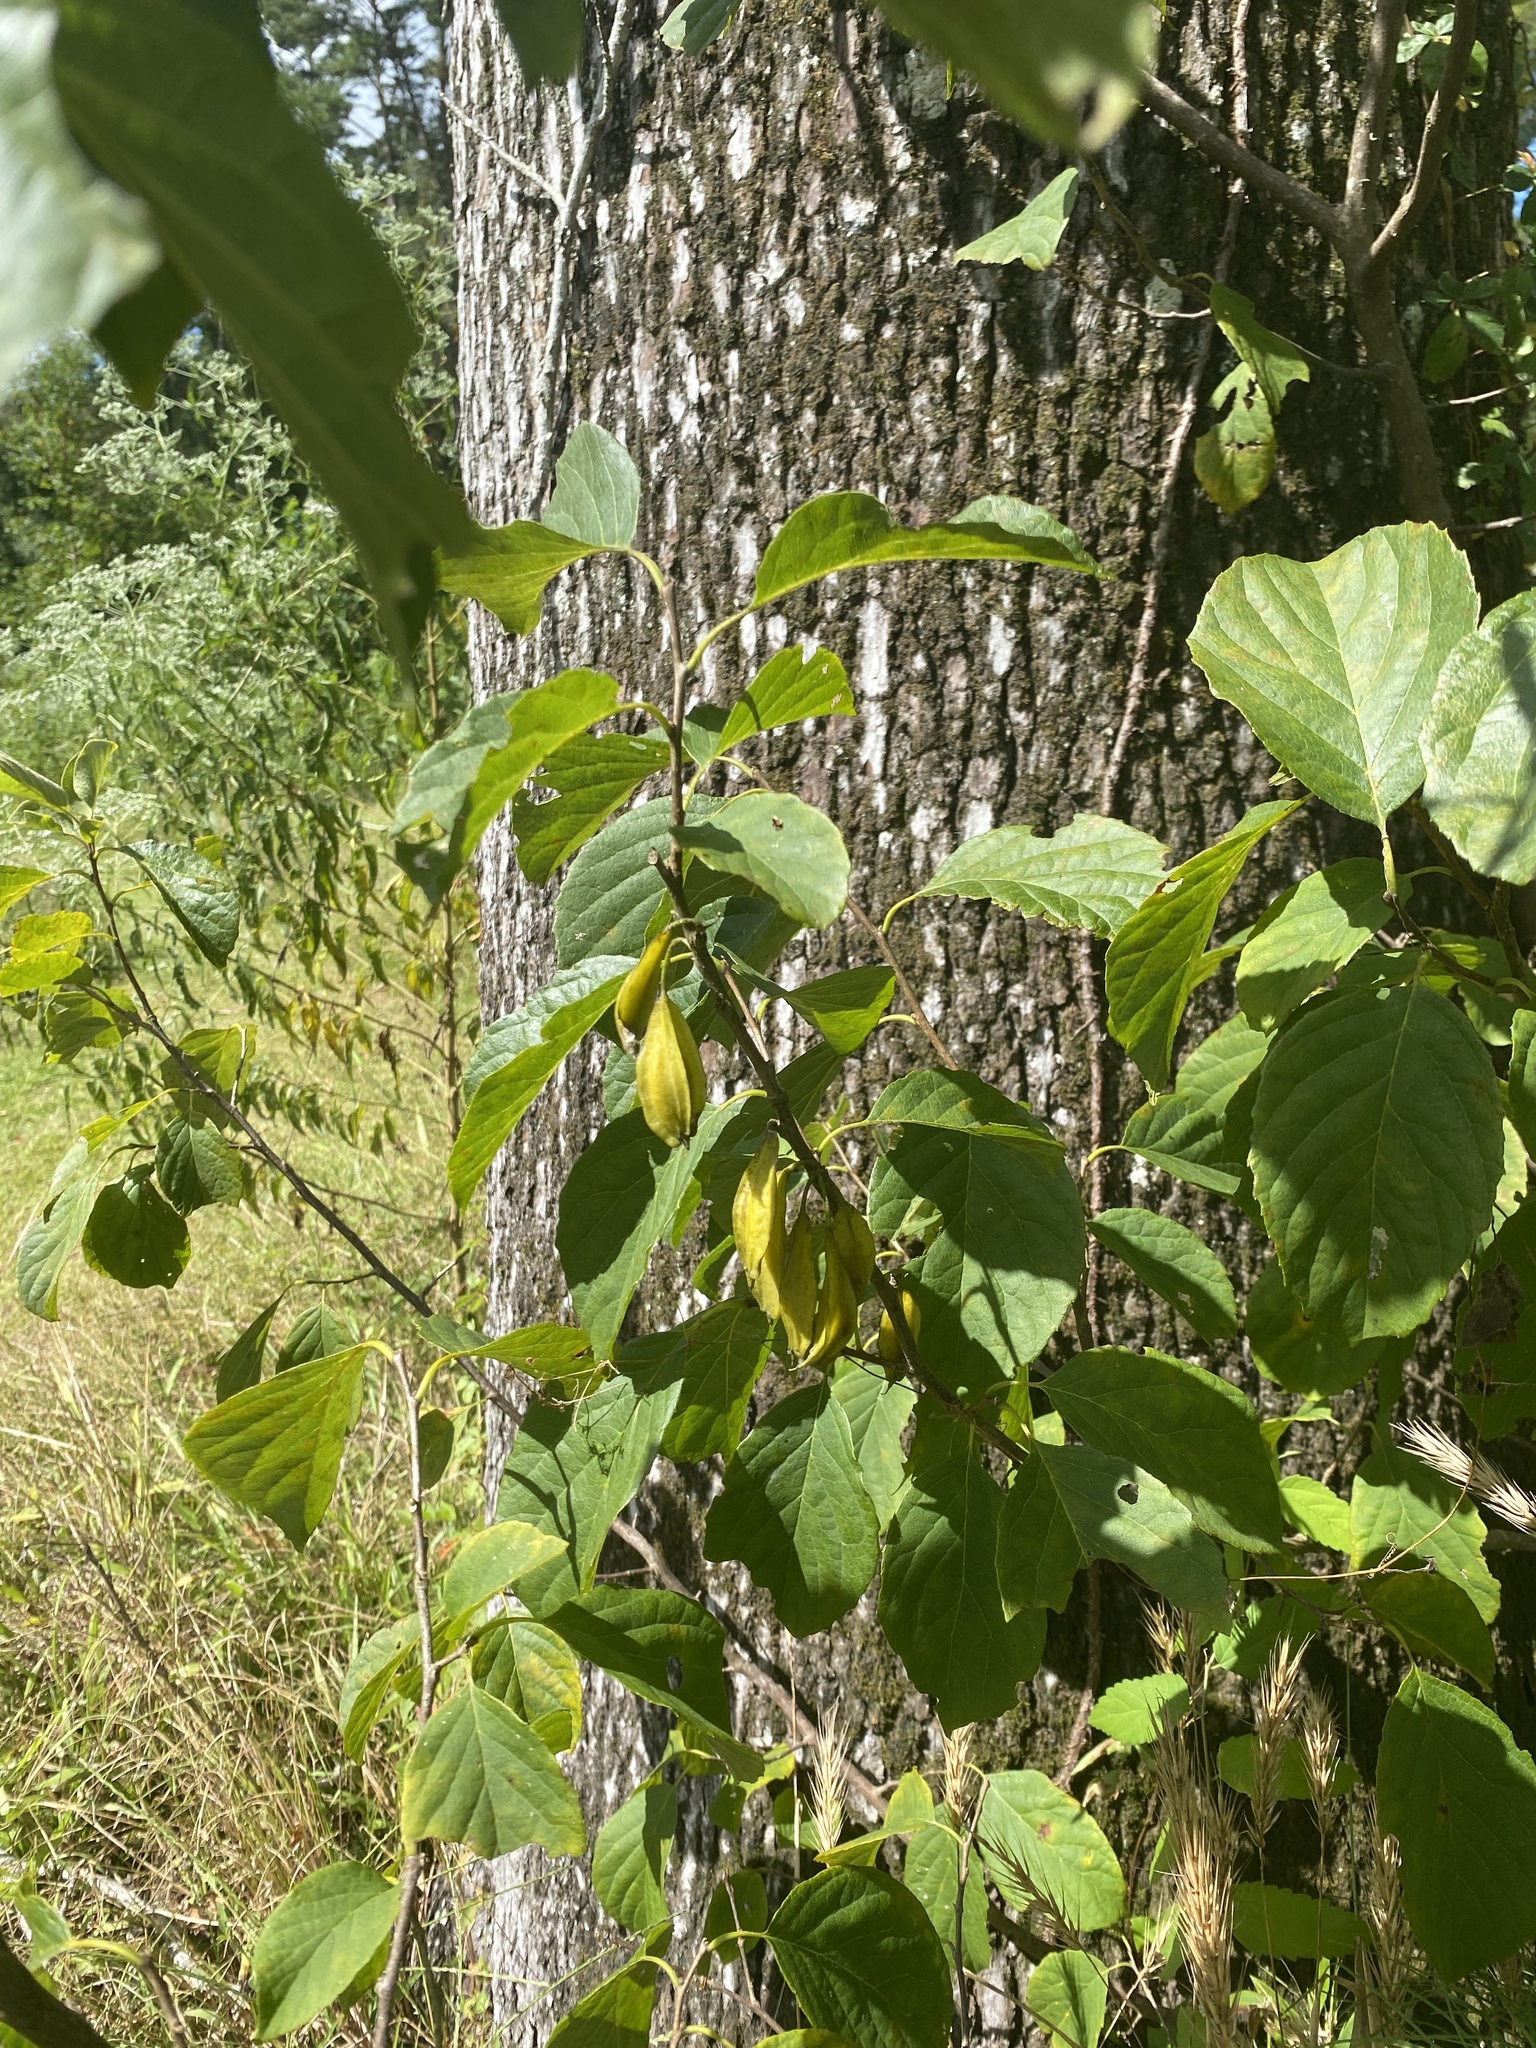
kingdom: Plantae
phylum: Tracheophyta
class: Magnoliopsida
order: Ericales
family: Styracaceae
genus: Halesia
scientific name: Halesia diptera
